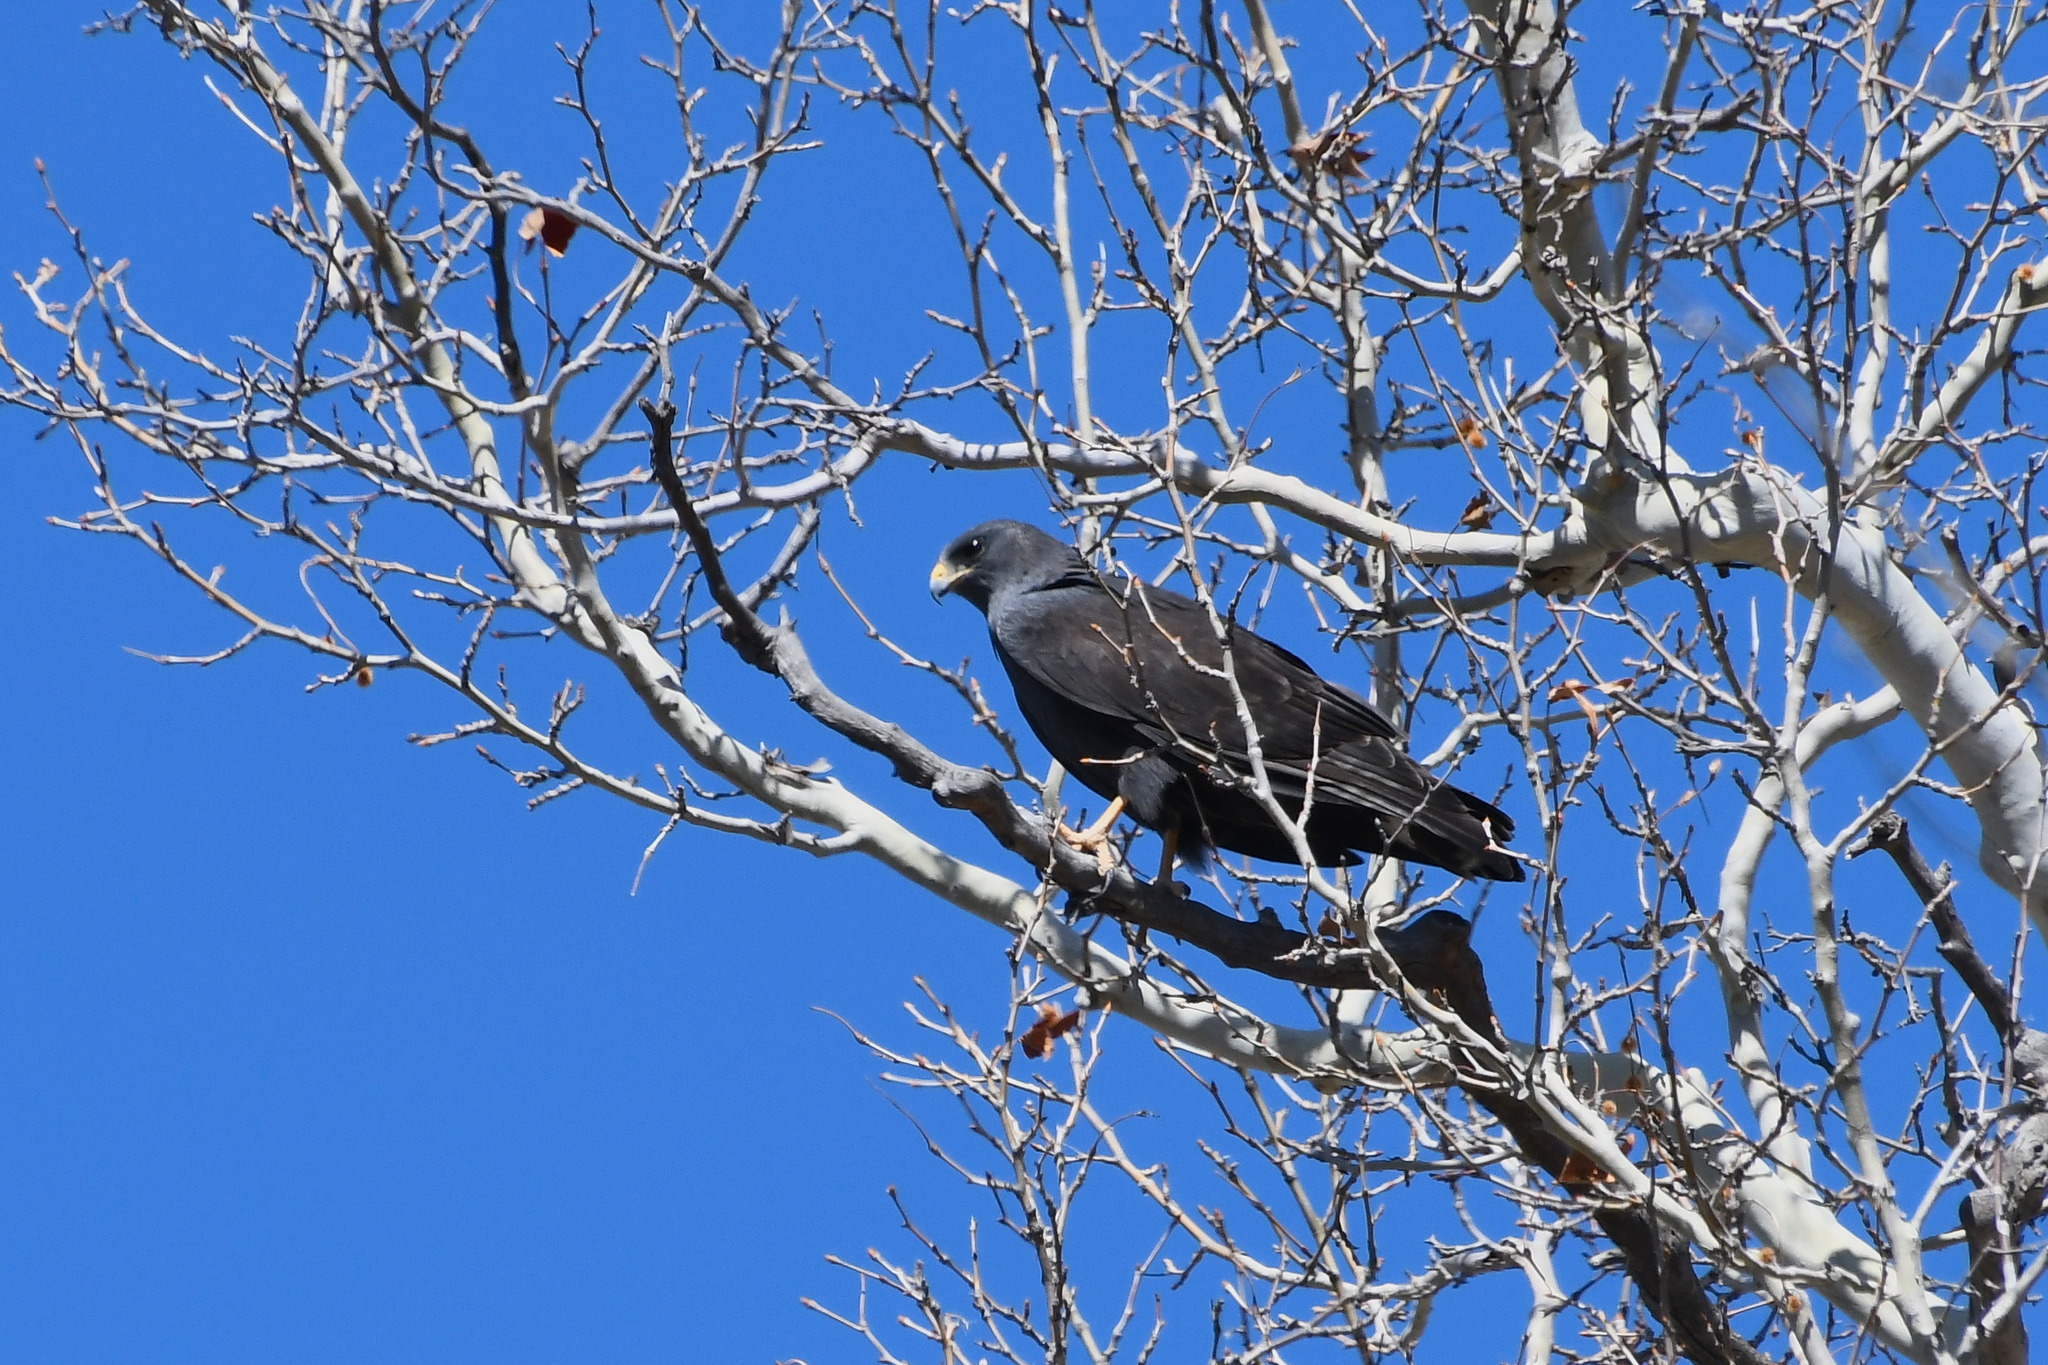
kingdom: Animalia
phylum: Chordata
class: Aves
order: Accipitriformes
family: Accipitridae
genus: Buteo
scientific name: Buteo albonotatus
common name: Zone-tailed hawk
